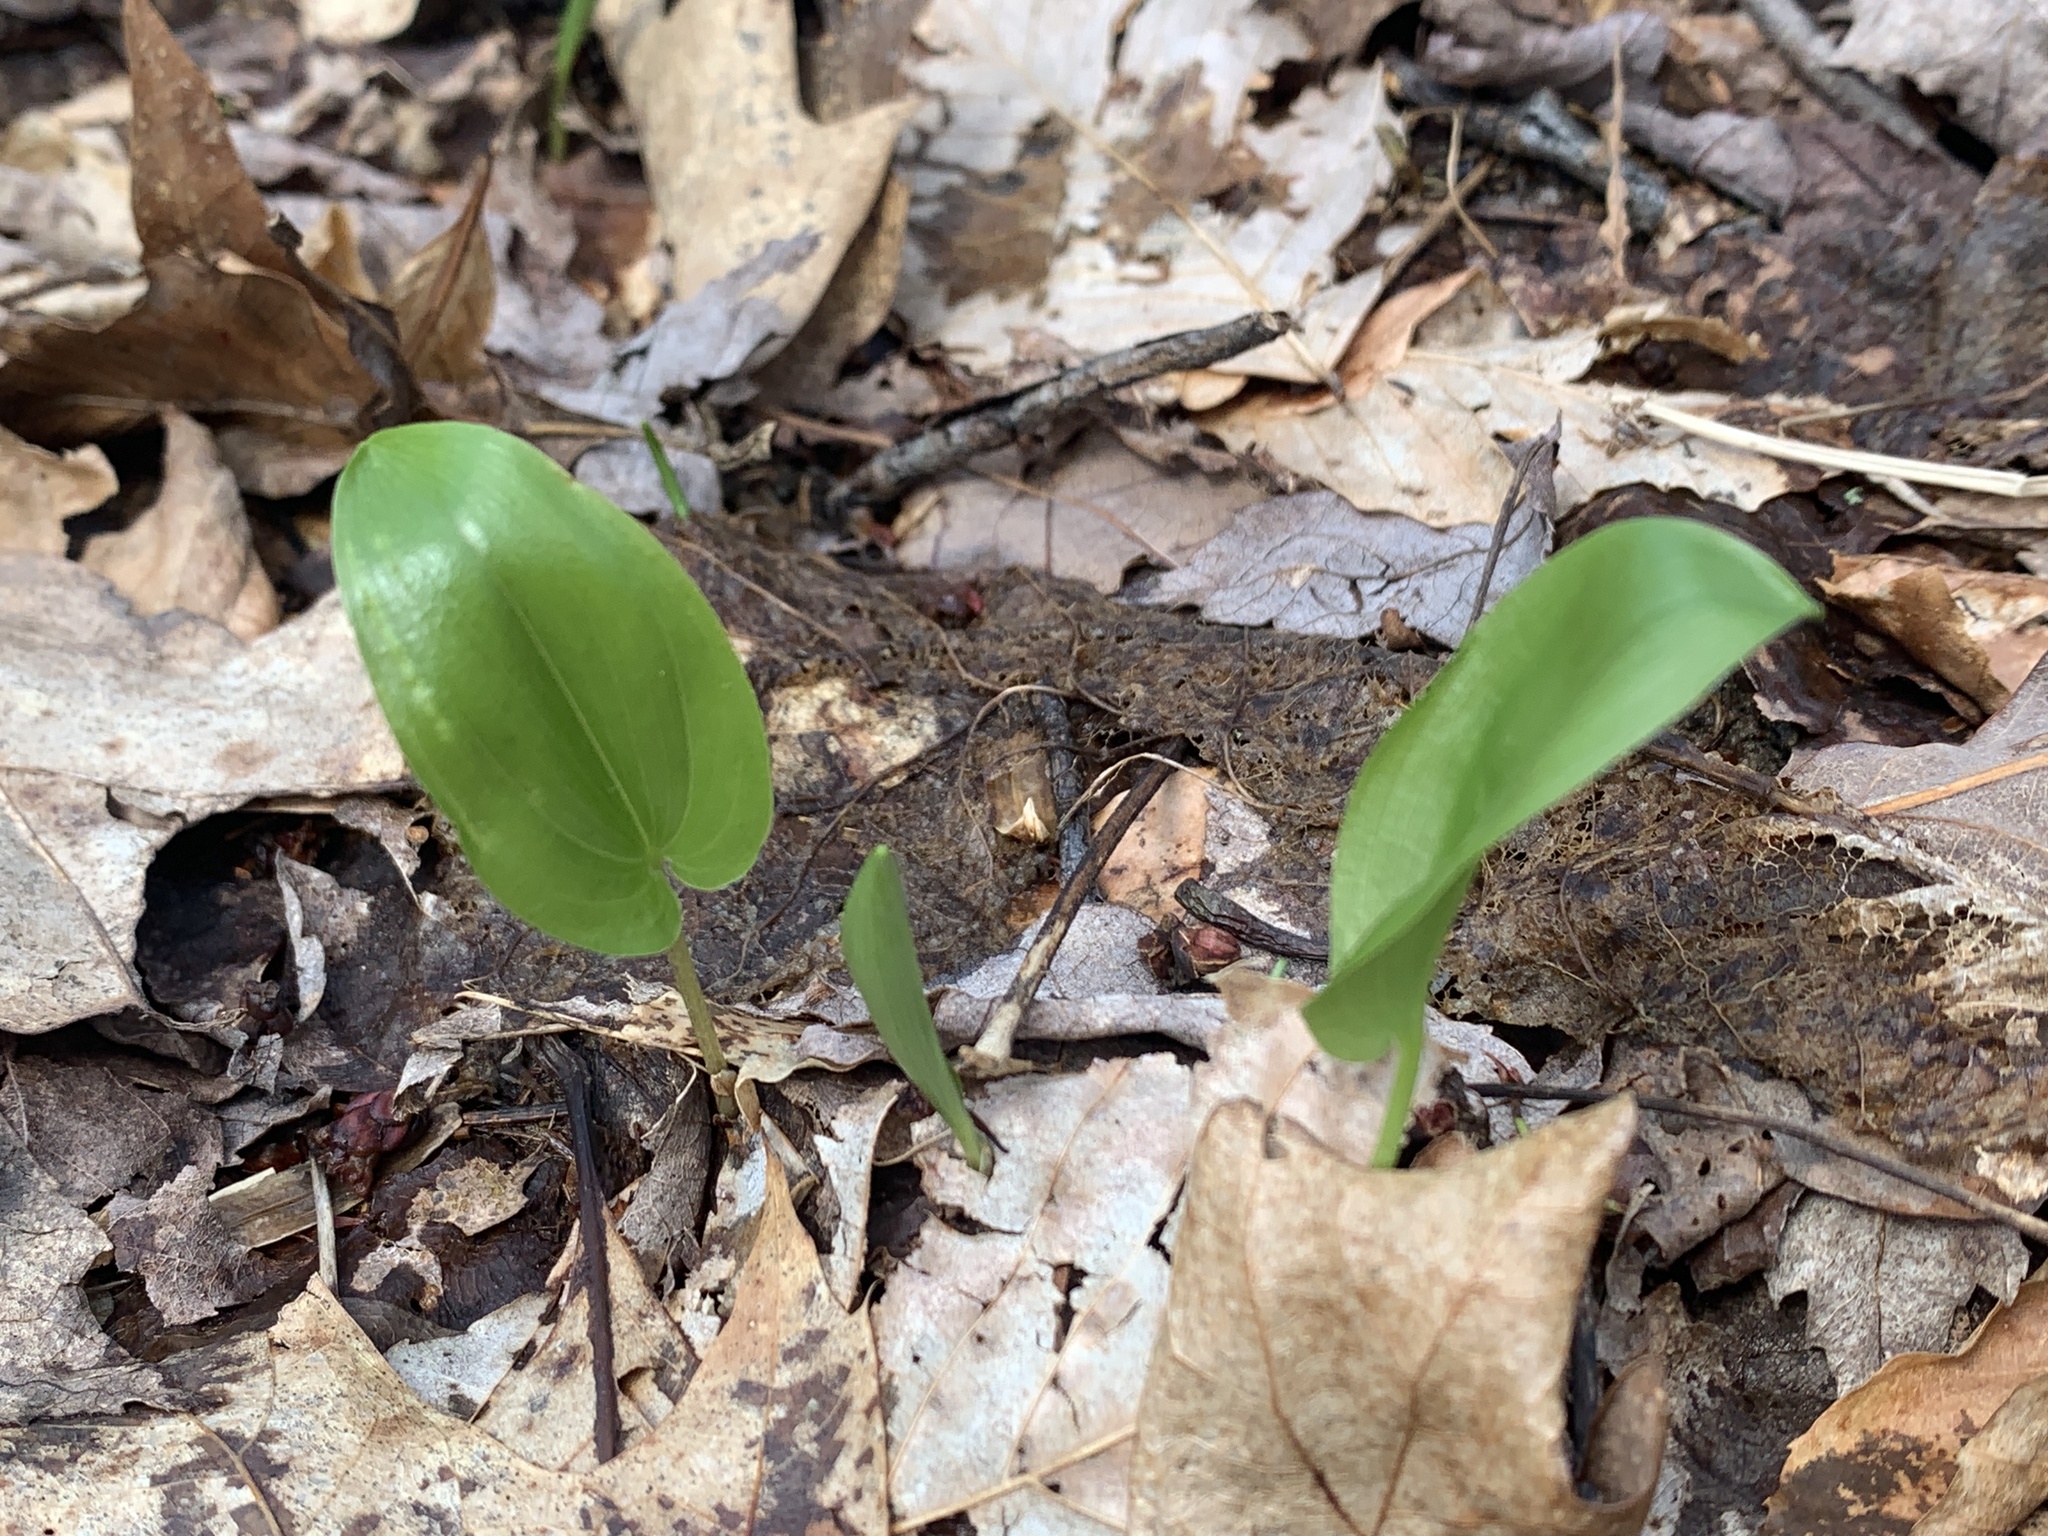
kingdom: Plantae
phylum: Tracheophyta
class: Liliopsida
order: Asparagales
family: Asparagaceae
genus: Maianthemum
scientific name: Maianthemum canadense
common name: False lily-of-the-valley
